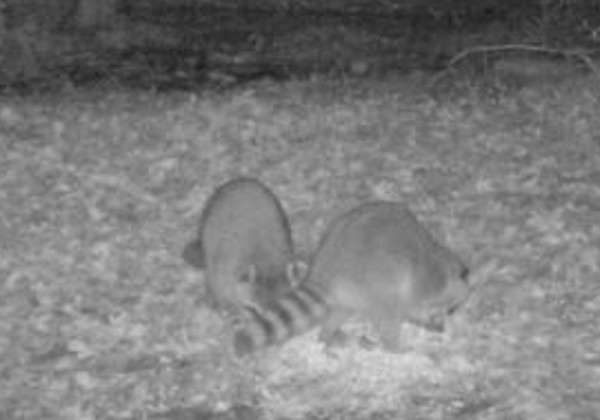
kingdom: Animalia
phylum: Chordata
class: Mammalia
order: Carnivora
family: Procyonidae
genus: Procyon
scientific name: Procyon lotor
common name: Raccoon
